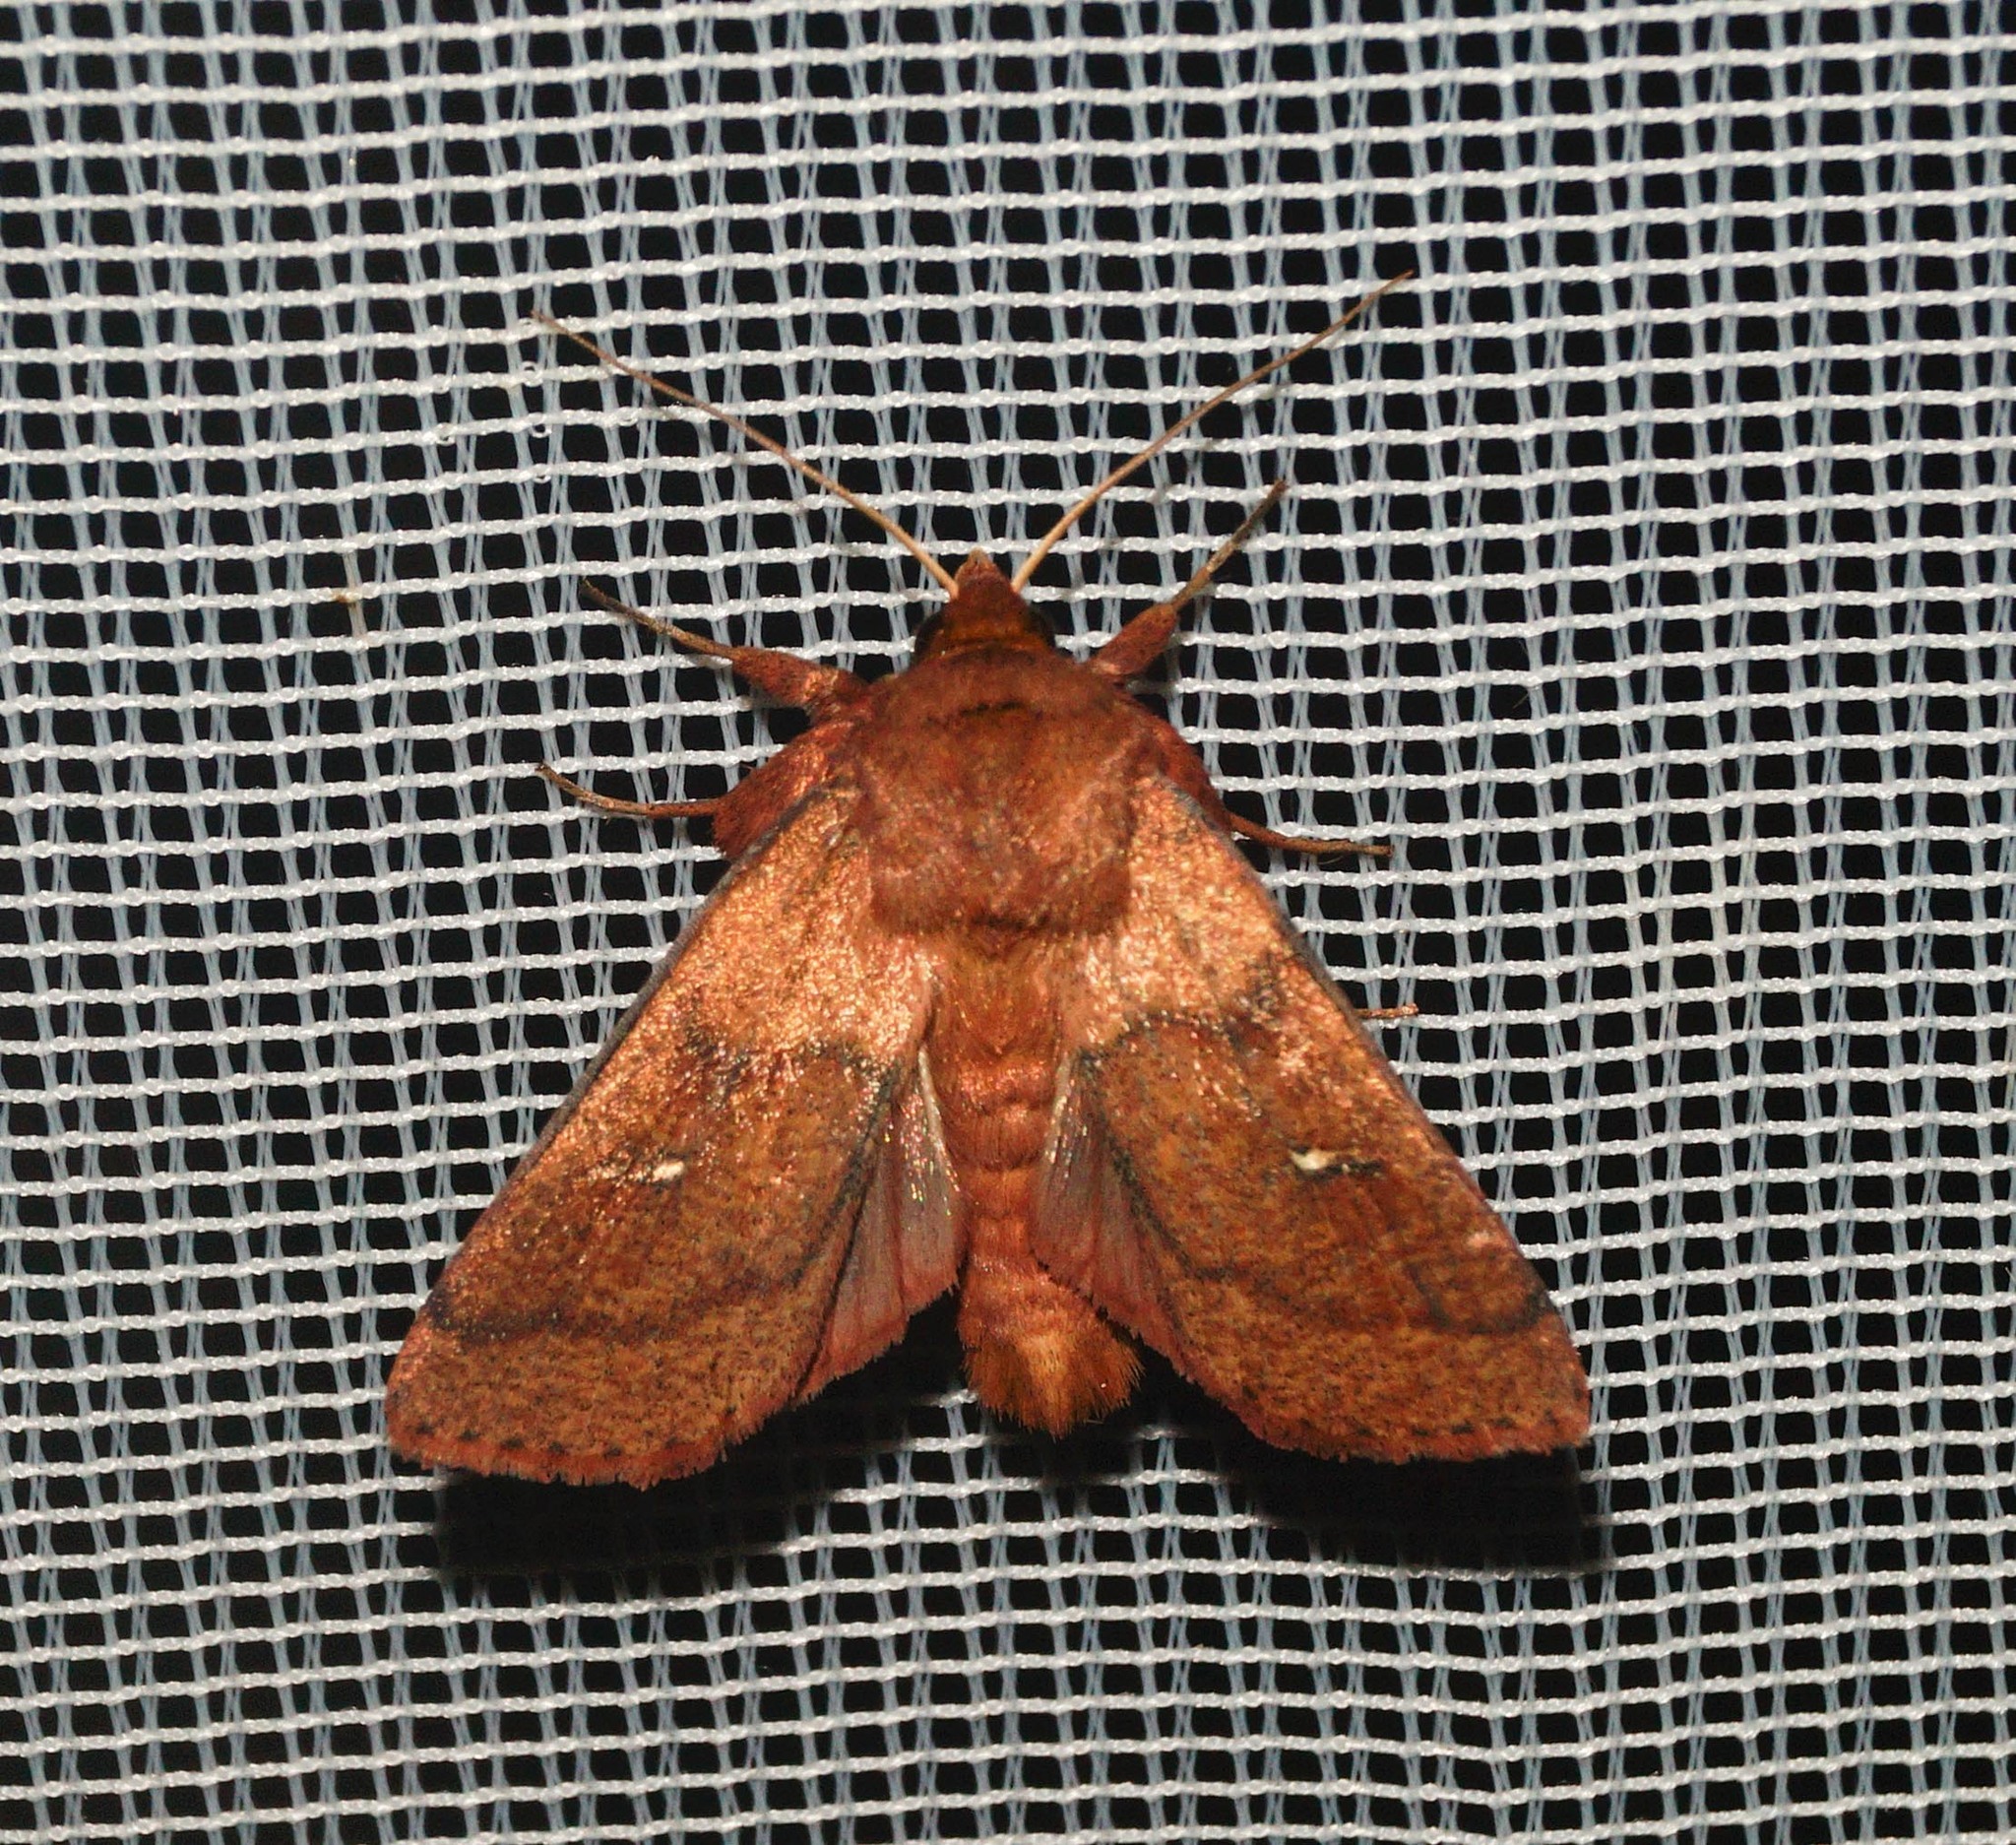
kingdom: Animalia
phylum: Arthropoda
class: Insecta
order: Lepidoptera
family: Noctuidae
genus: Mythimna
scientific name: Mythimna turca
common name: Double line
